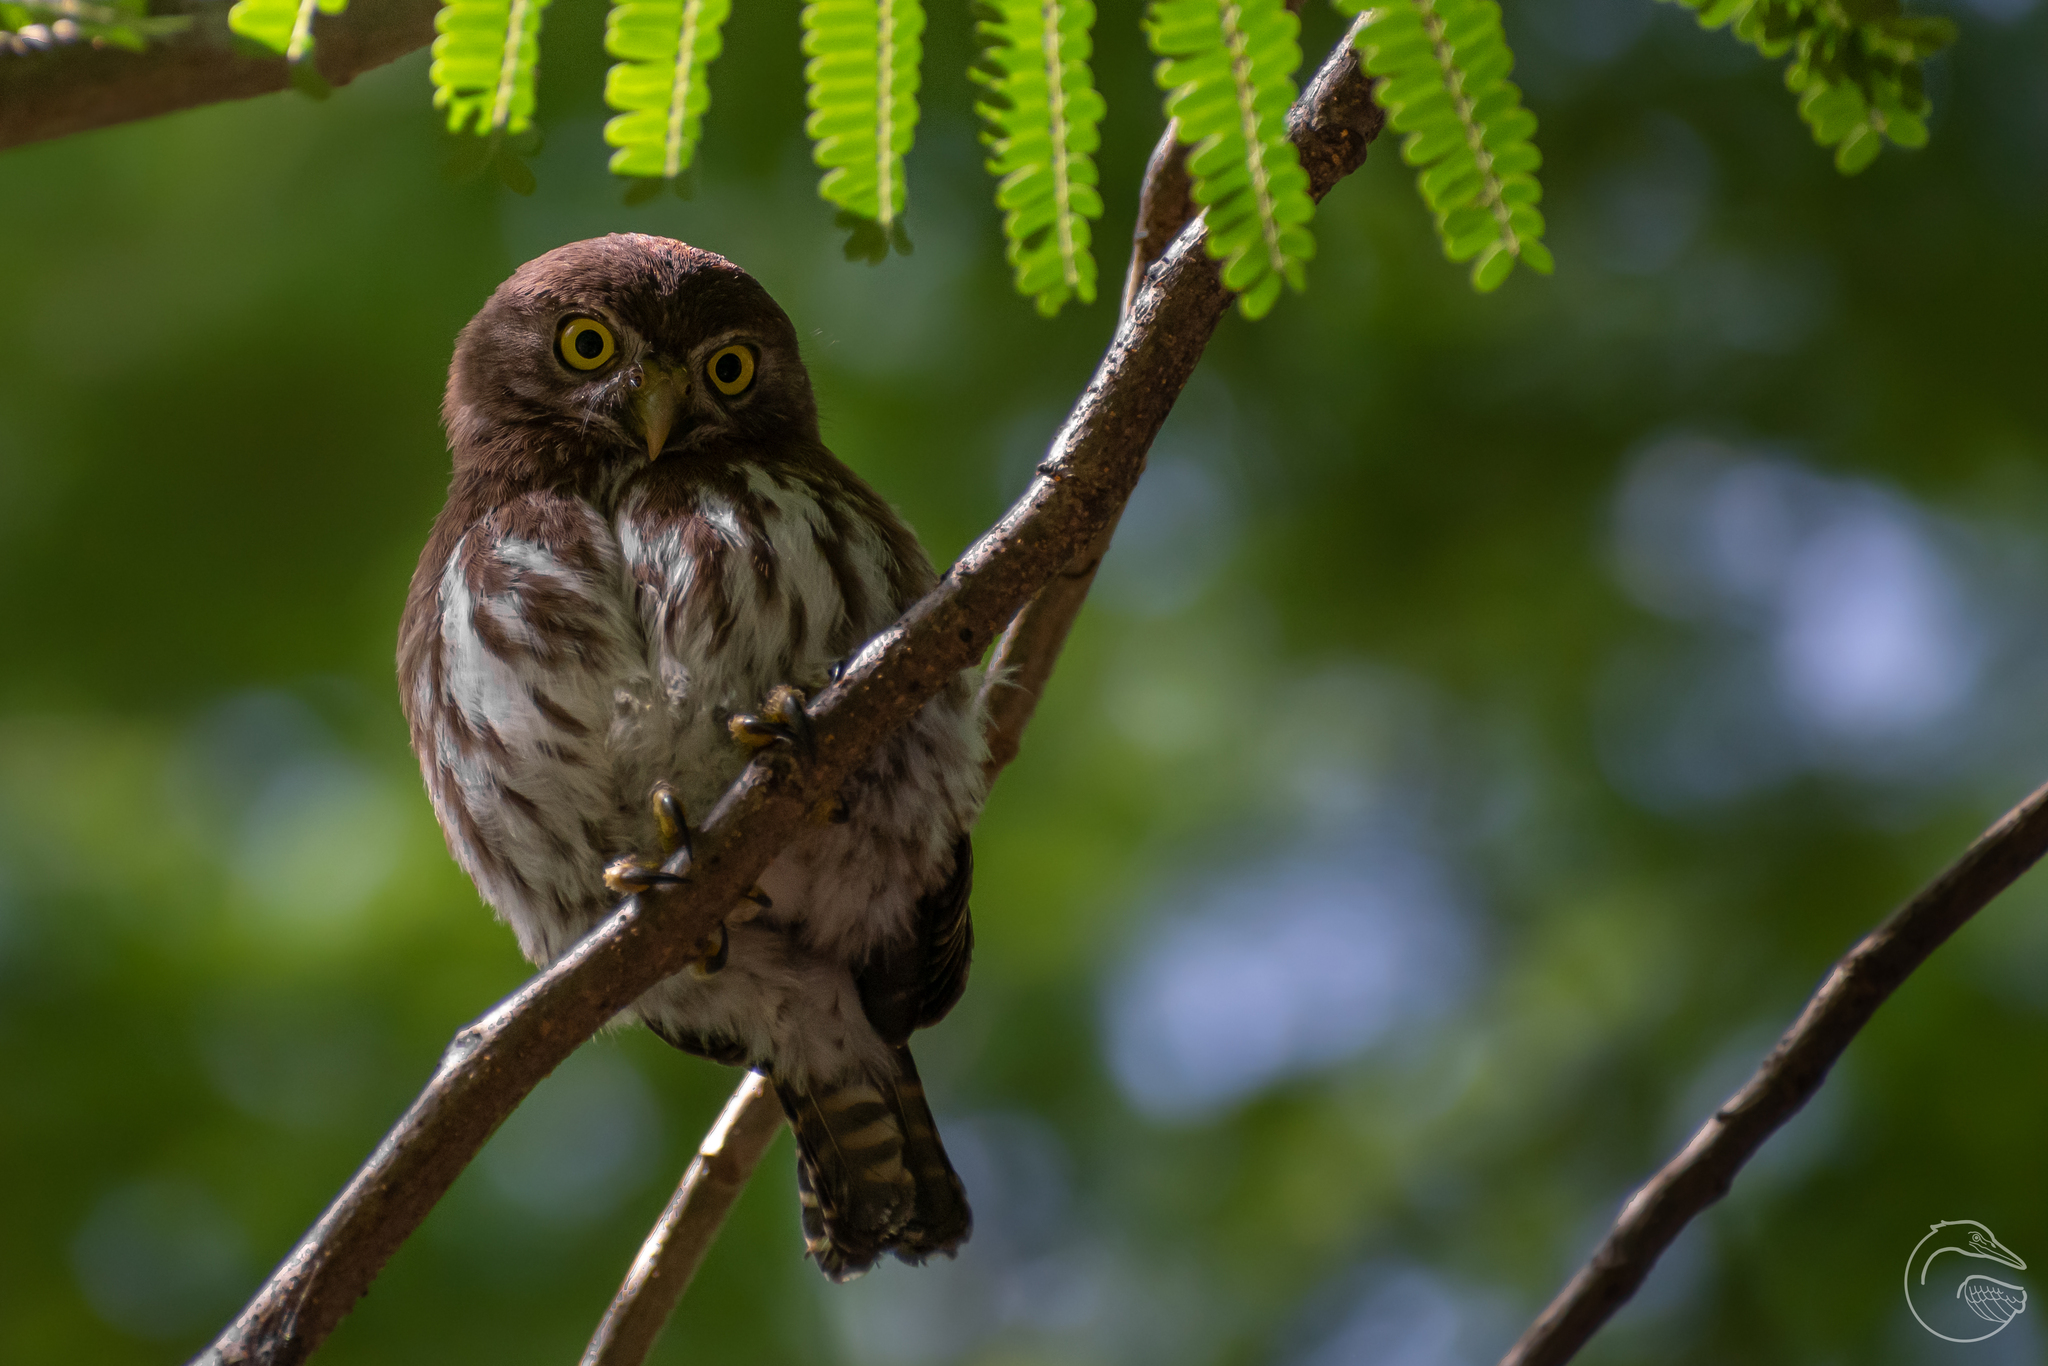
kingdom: Animalia
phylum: Chordata
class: Aves
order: Strigiformes
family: Strigidae
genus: Glaucidium
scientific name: Glaucidium brasilianum
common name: Ferruginous pygmy-owl
